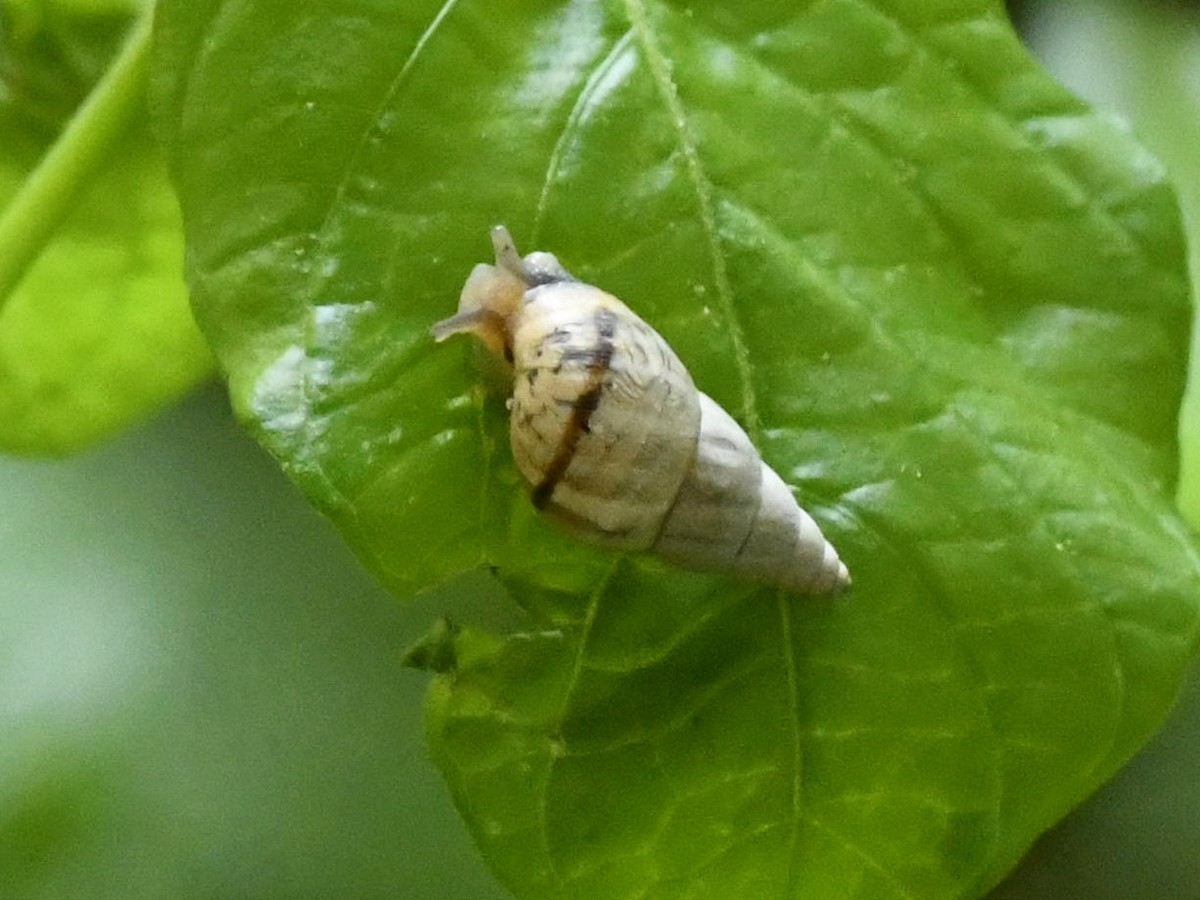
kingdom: Animalia
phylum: Mollusca
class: Gastropoda
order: Stylommatophora
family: Cerastidae
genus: Rachis
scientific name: Rachis punctata
